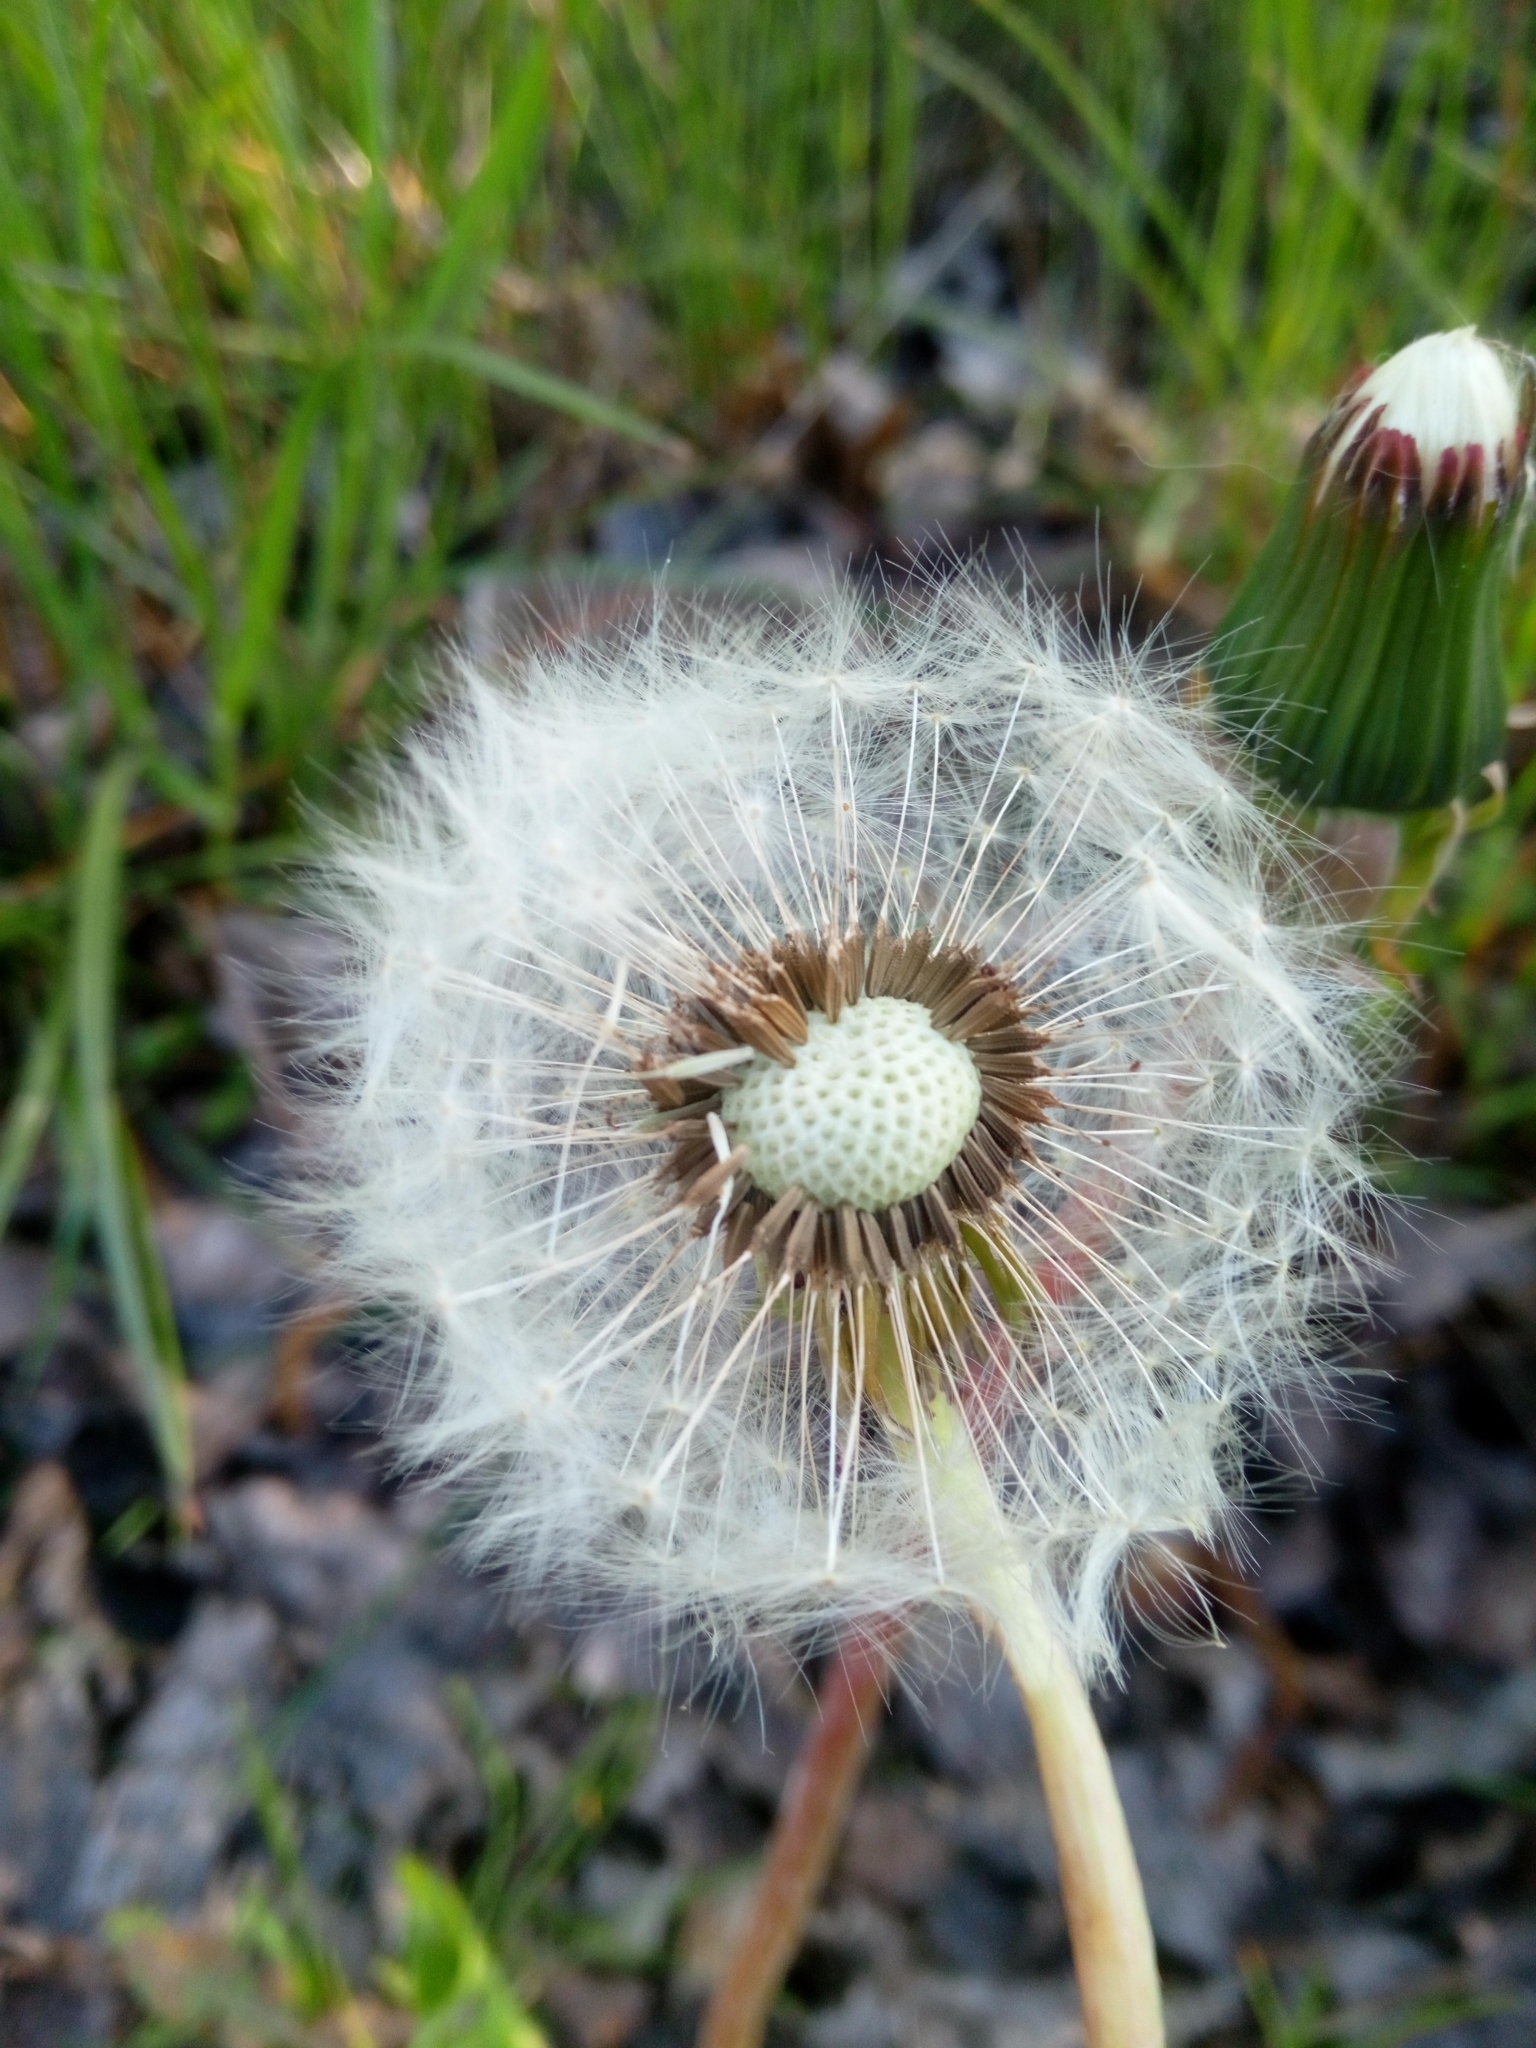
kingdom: Plantae
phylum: Tracheophyta
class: Magnoliopsida
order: Asterales
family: Asteraceae
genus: Taraxacum
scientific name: Taraxacum
